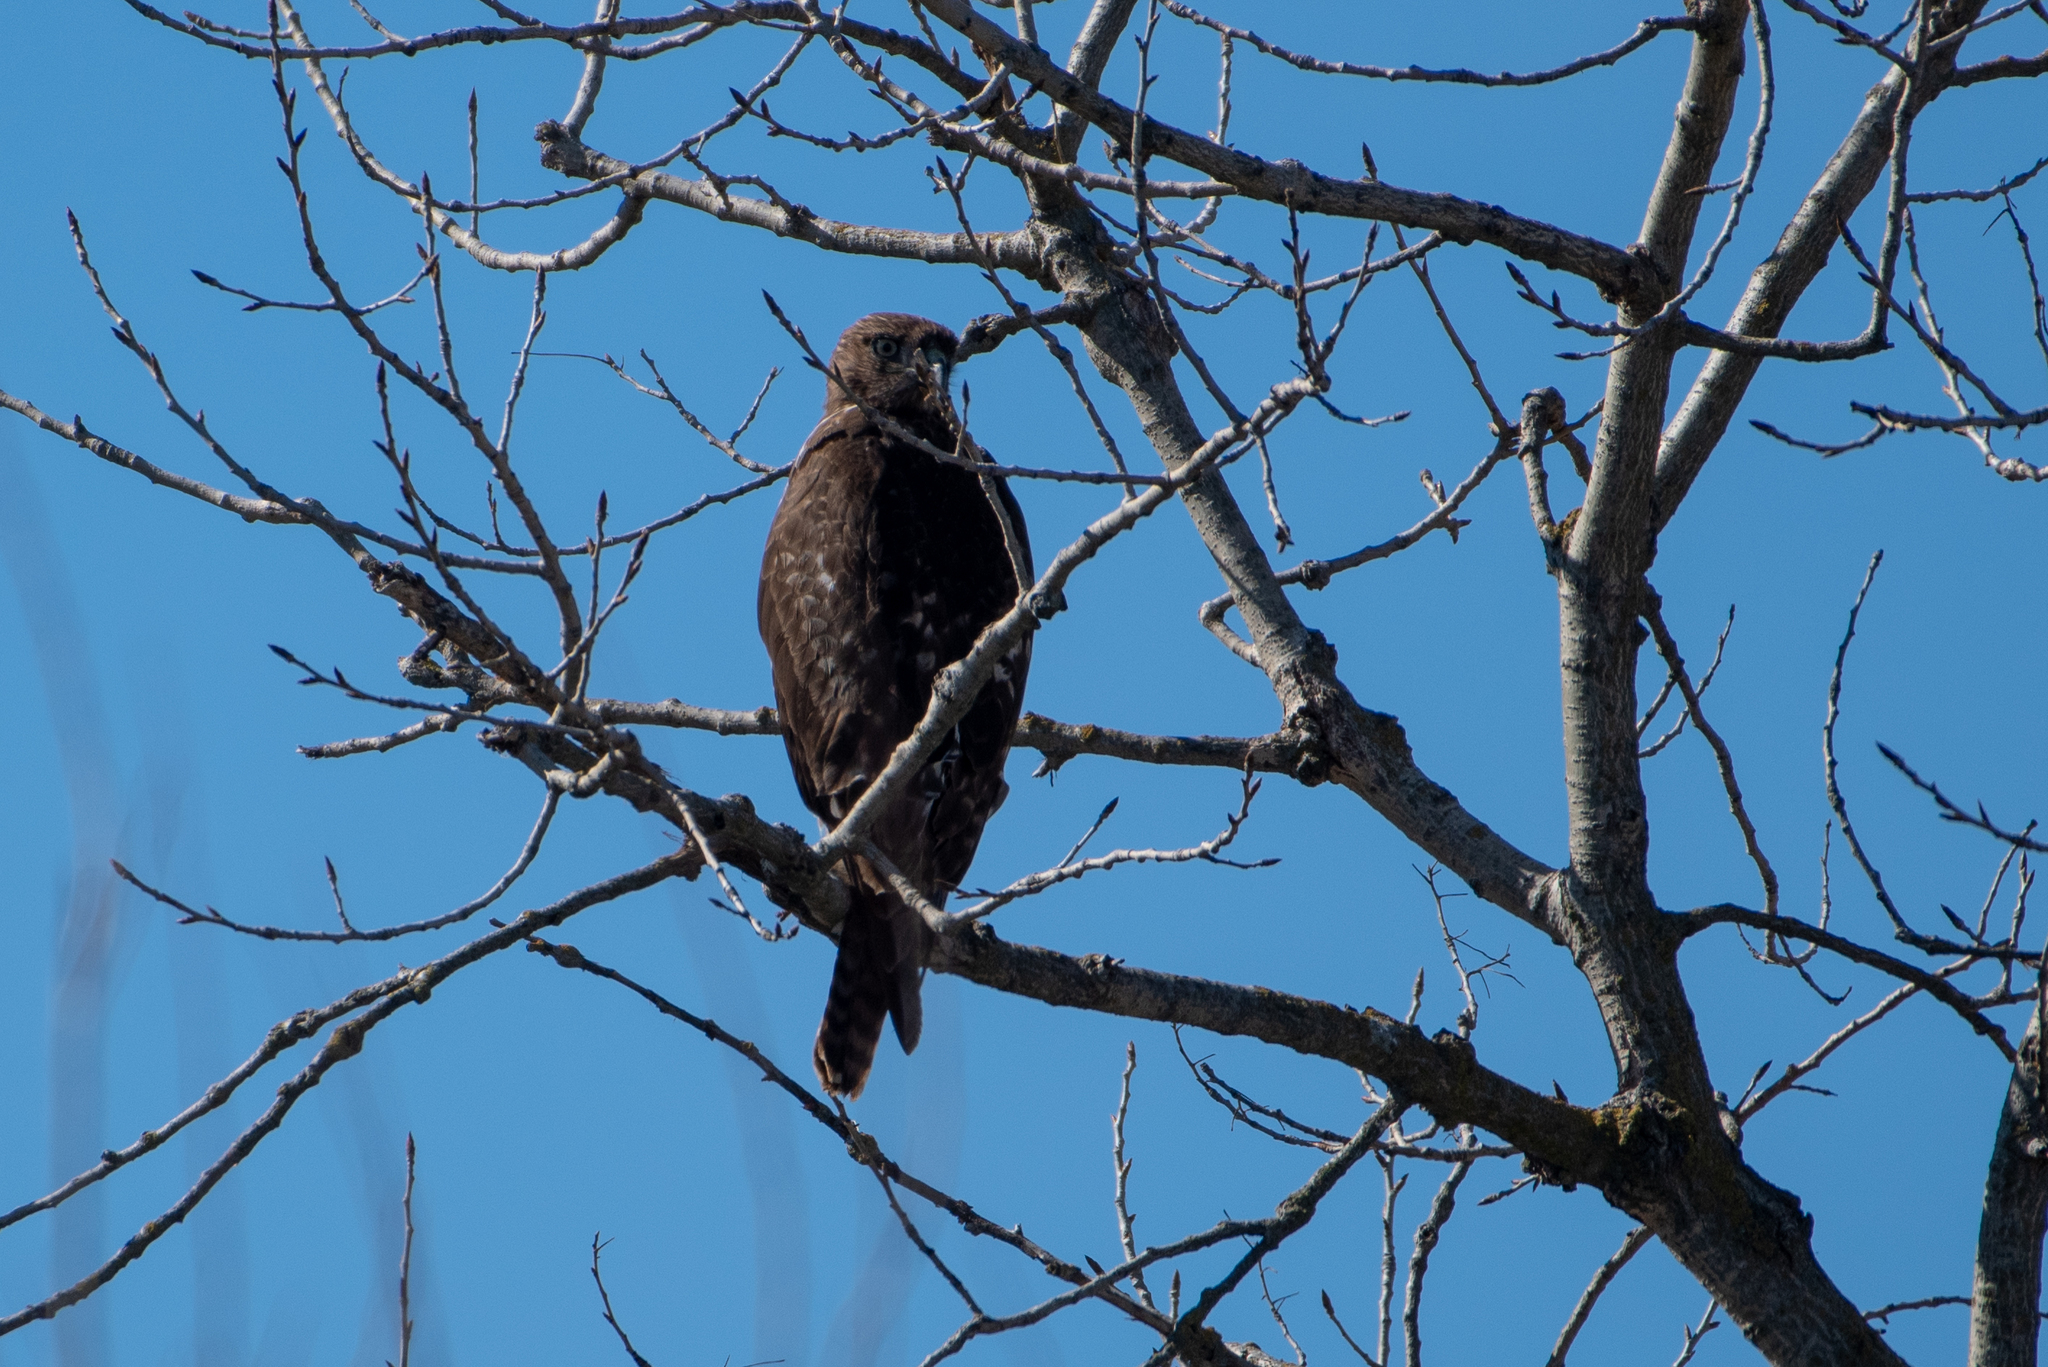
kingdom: Animalia
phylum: Chordata
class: Aves
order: Accipitriformes
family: Accipitridae
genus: Buteo
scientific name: Buteo jamaicensis
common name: Red-tailed hawk
